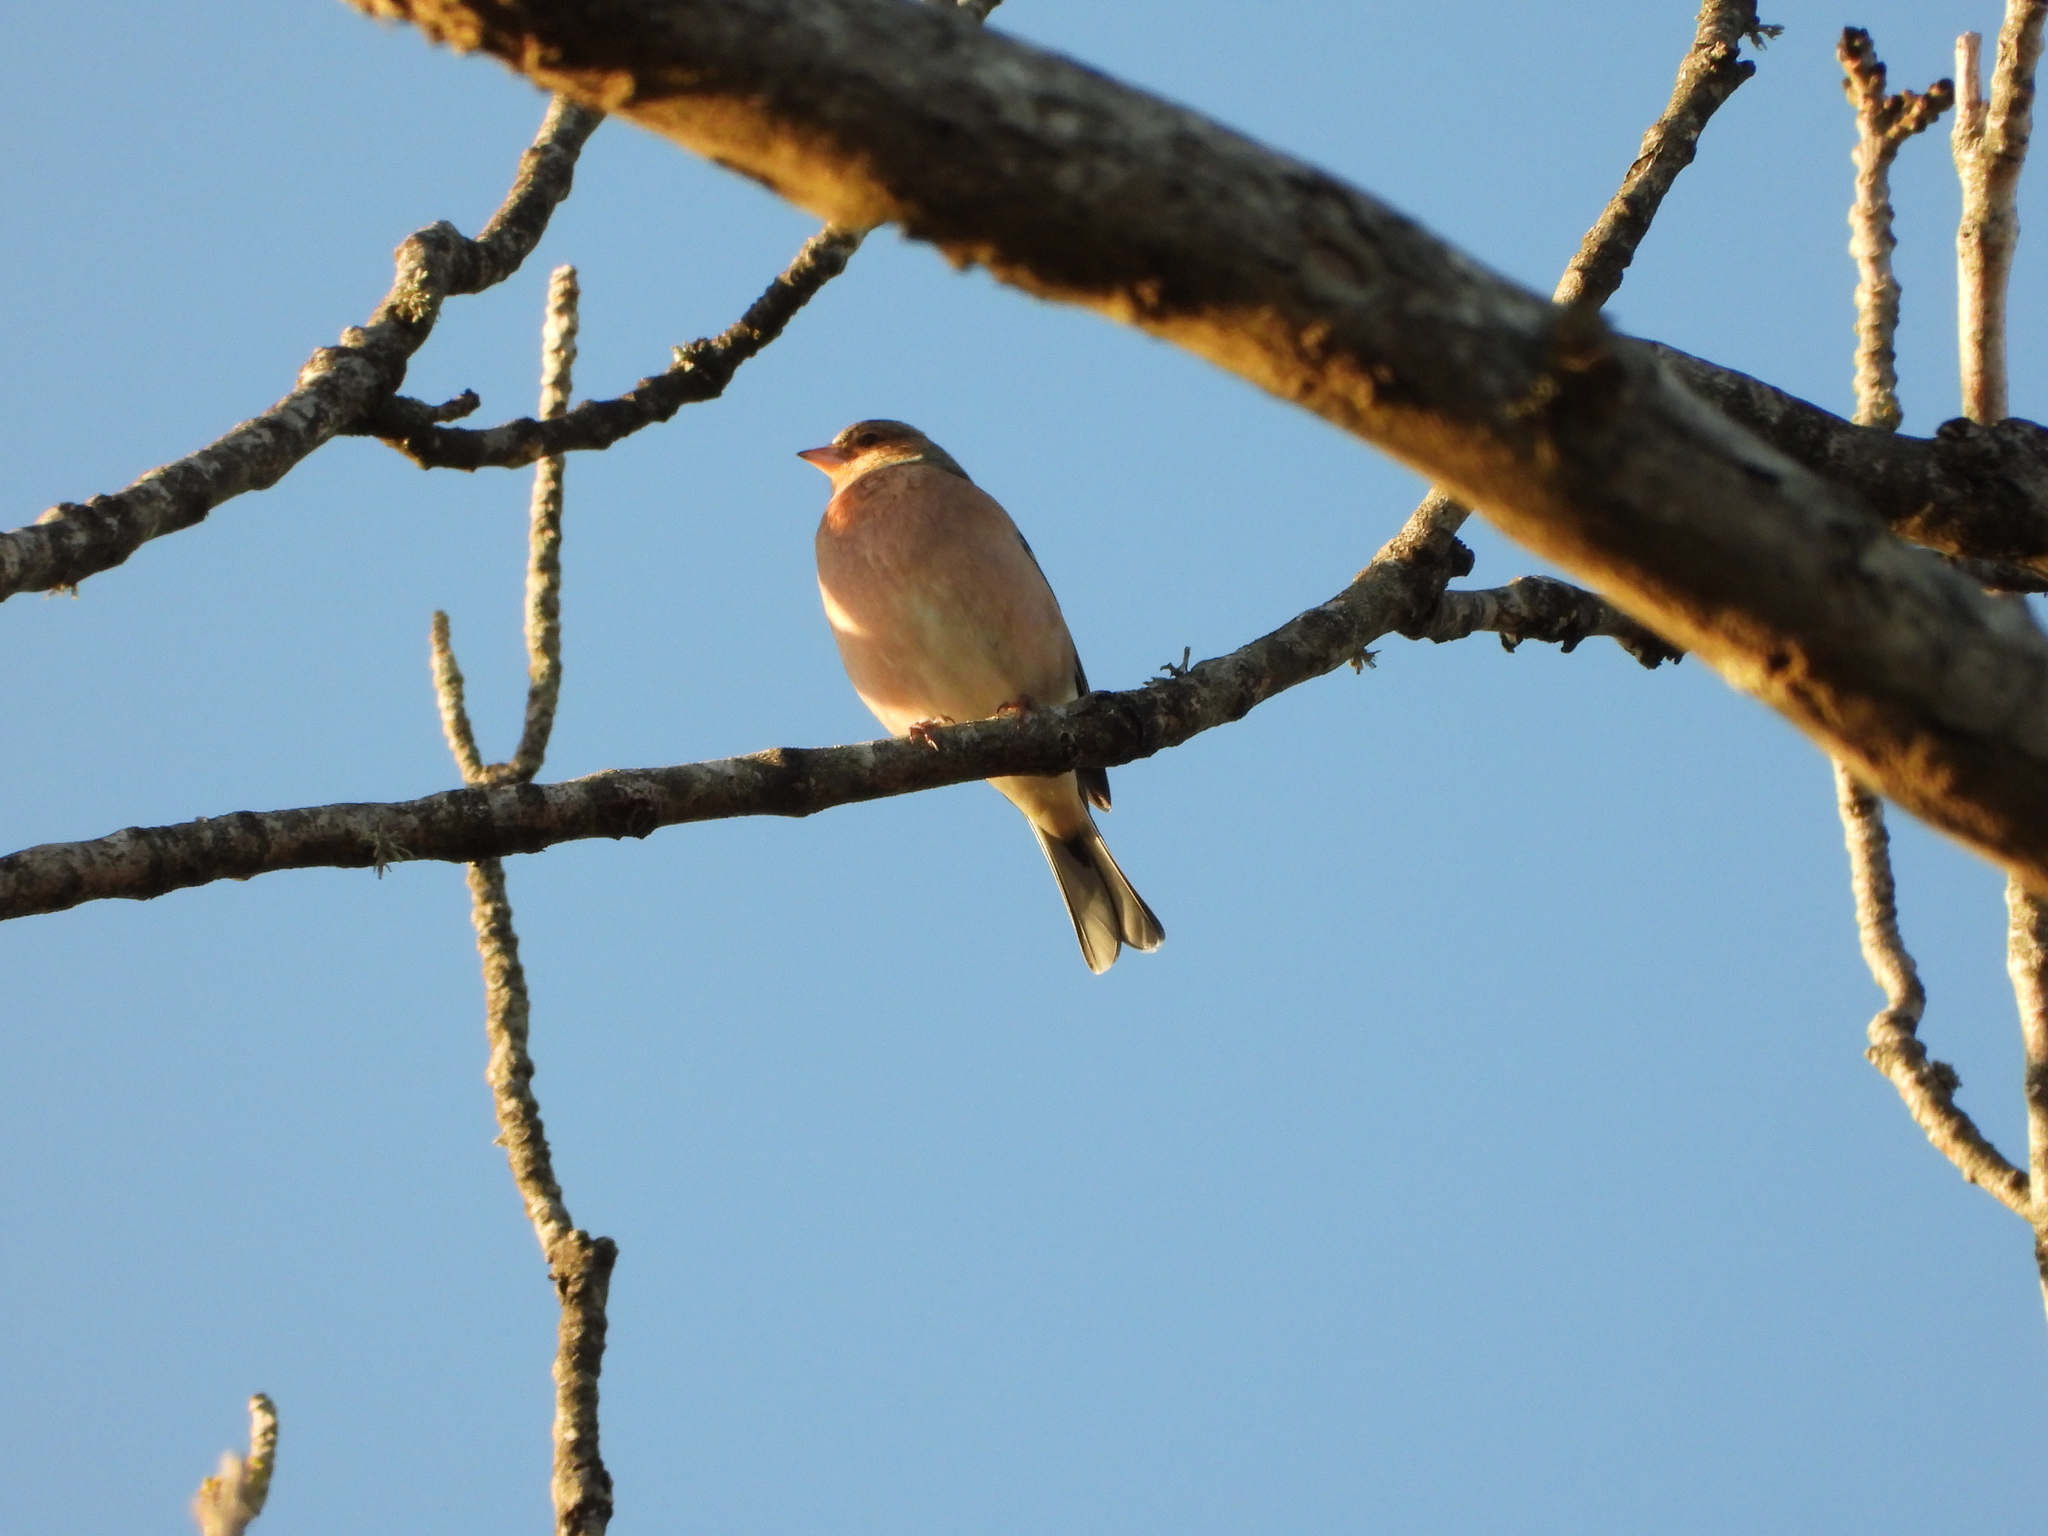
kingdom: Animalia
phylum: Chordata
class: Aves
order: Passeriformes
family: Fringillidae
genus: Fringilla
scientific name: Fringilla coelebs
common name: Common chaffinch
